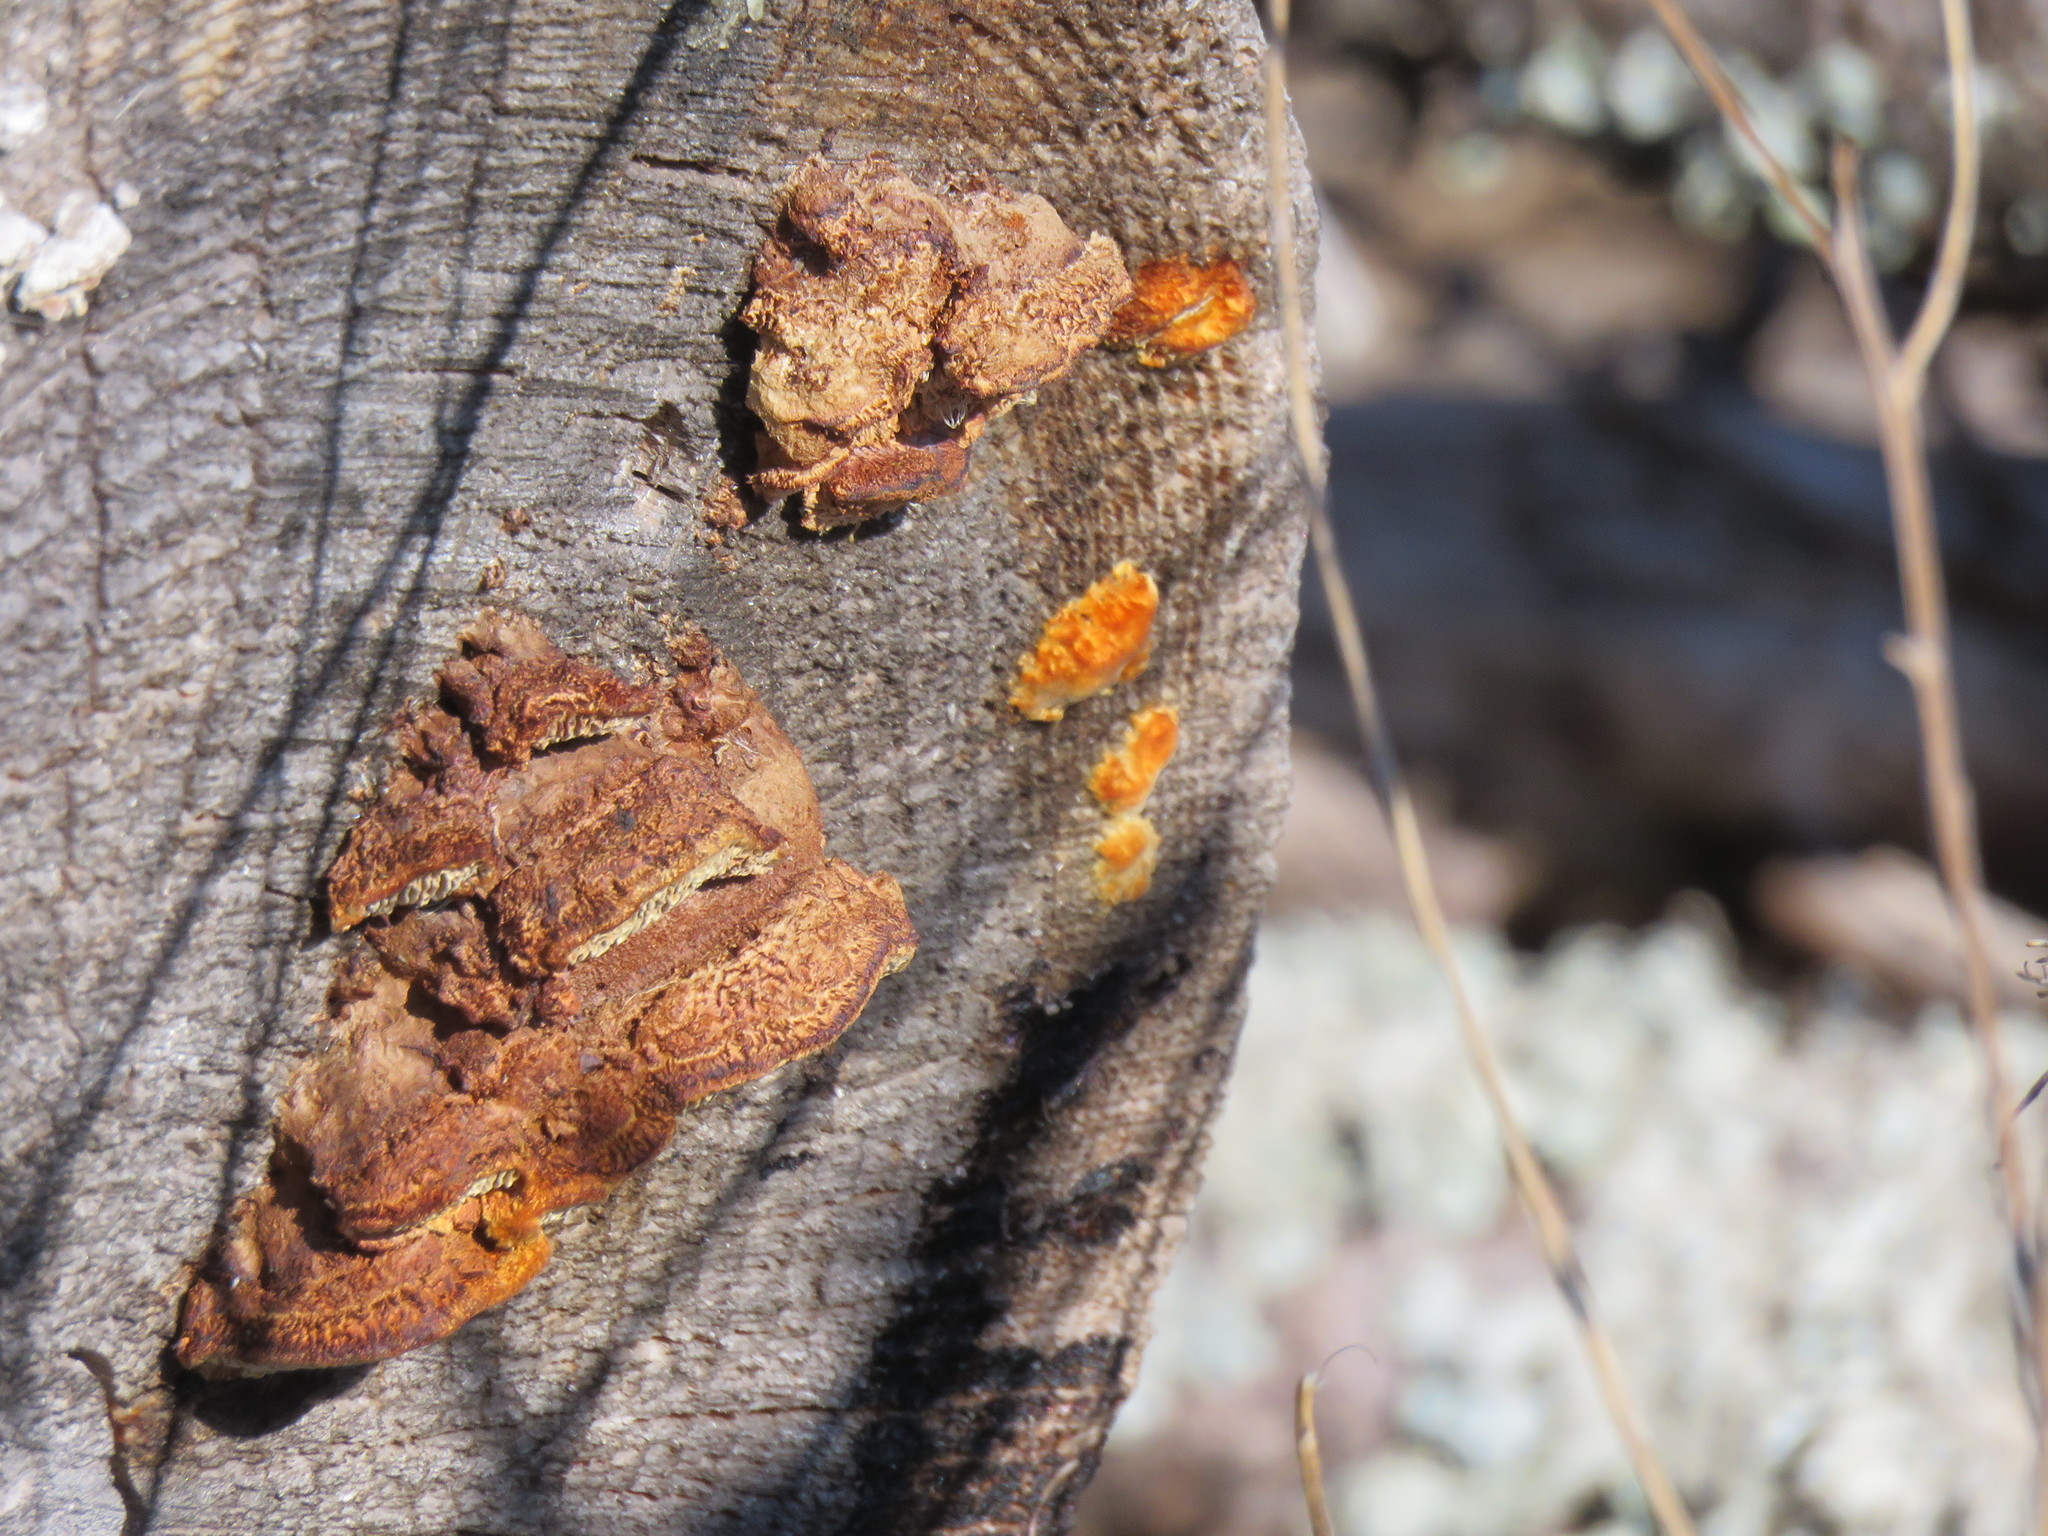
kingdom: Fungi
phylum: Basidiomycota
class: Agaricomycetes
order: Gloeophyllales
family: Gloeophyllaceae
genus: Gloeophyllum
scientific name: Gloeophyllum sepiarium
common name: Conifer mazegill
